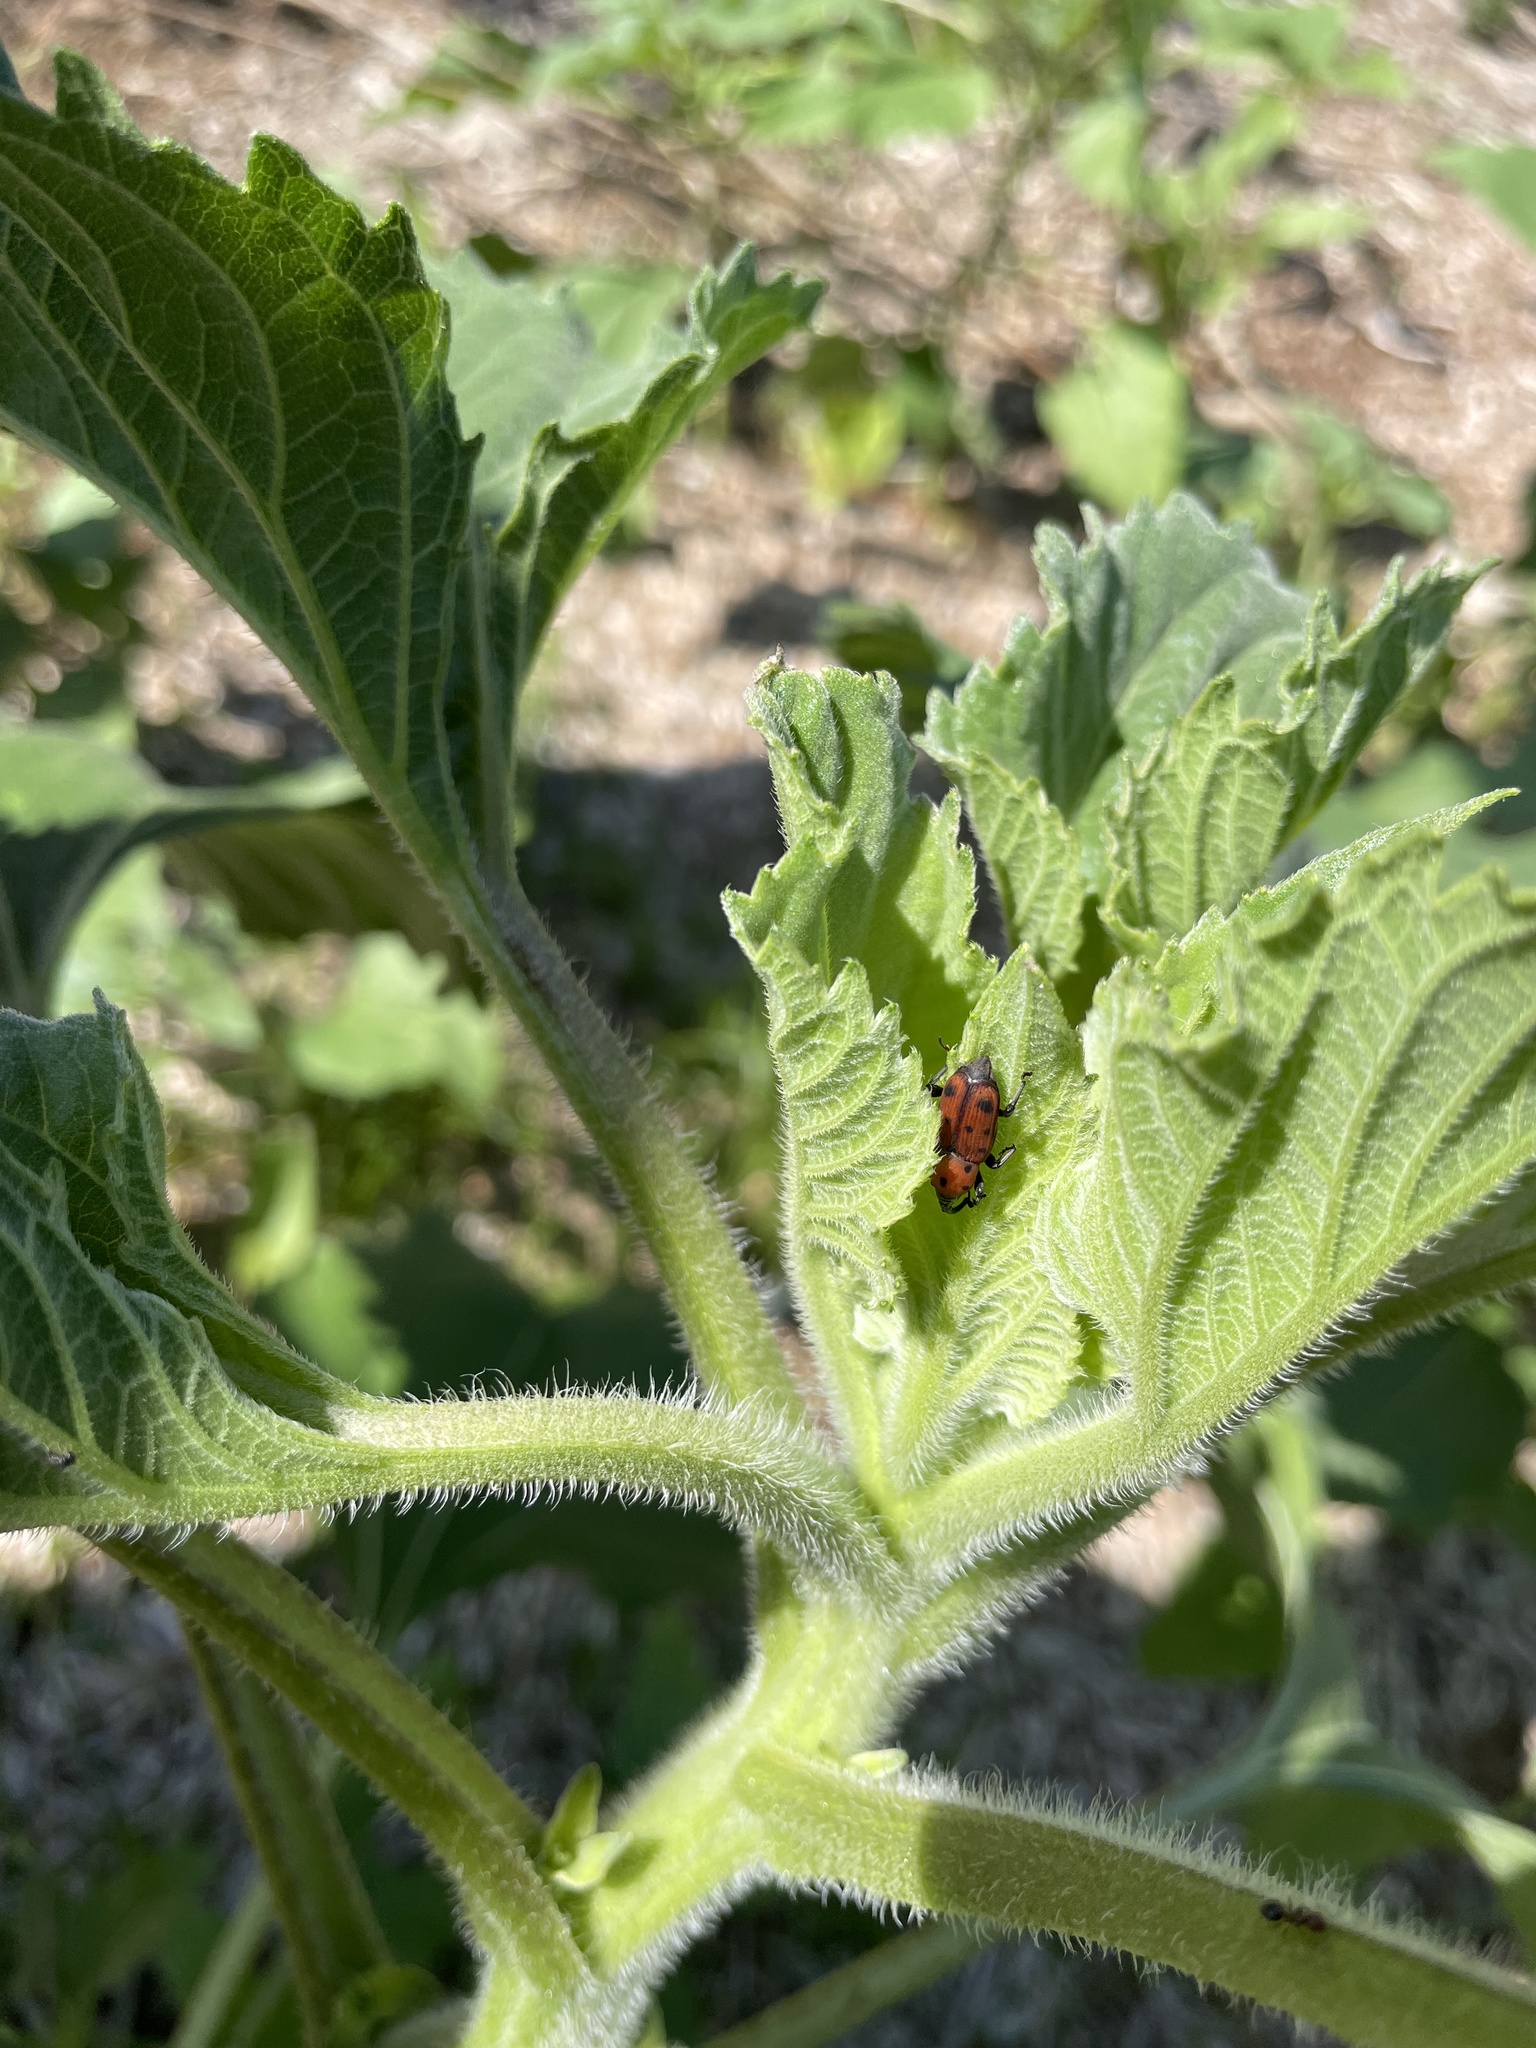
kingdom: Animalia
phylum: Arthropoda
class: Insecta
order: Coleoptera
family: Dryophthoridae
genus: Rhodobaenus
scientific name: Rhodobaenus tredecimpunctatus
